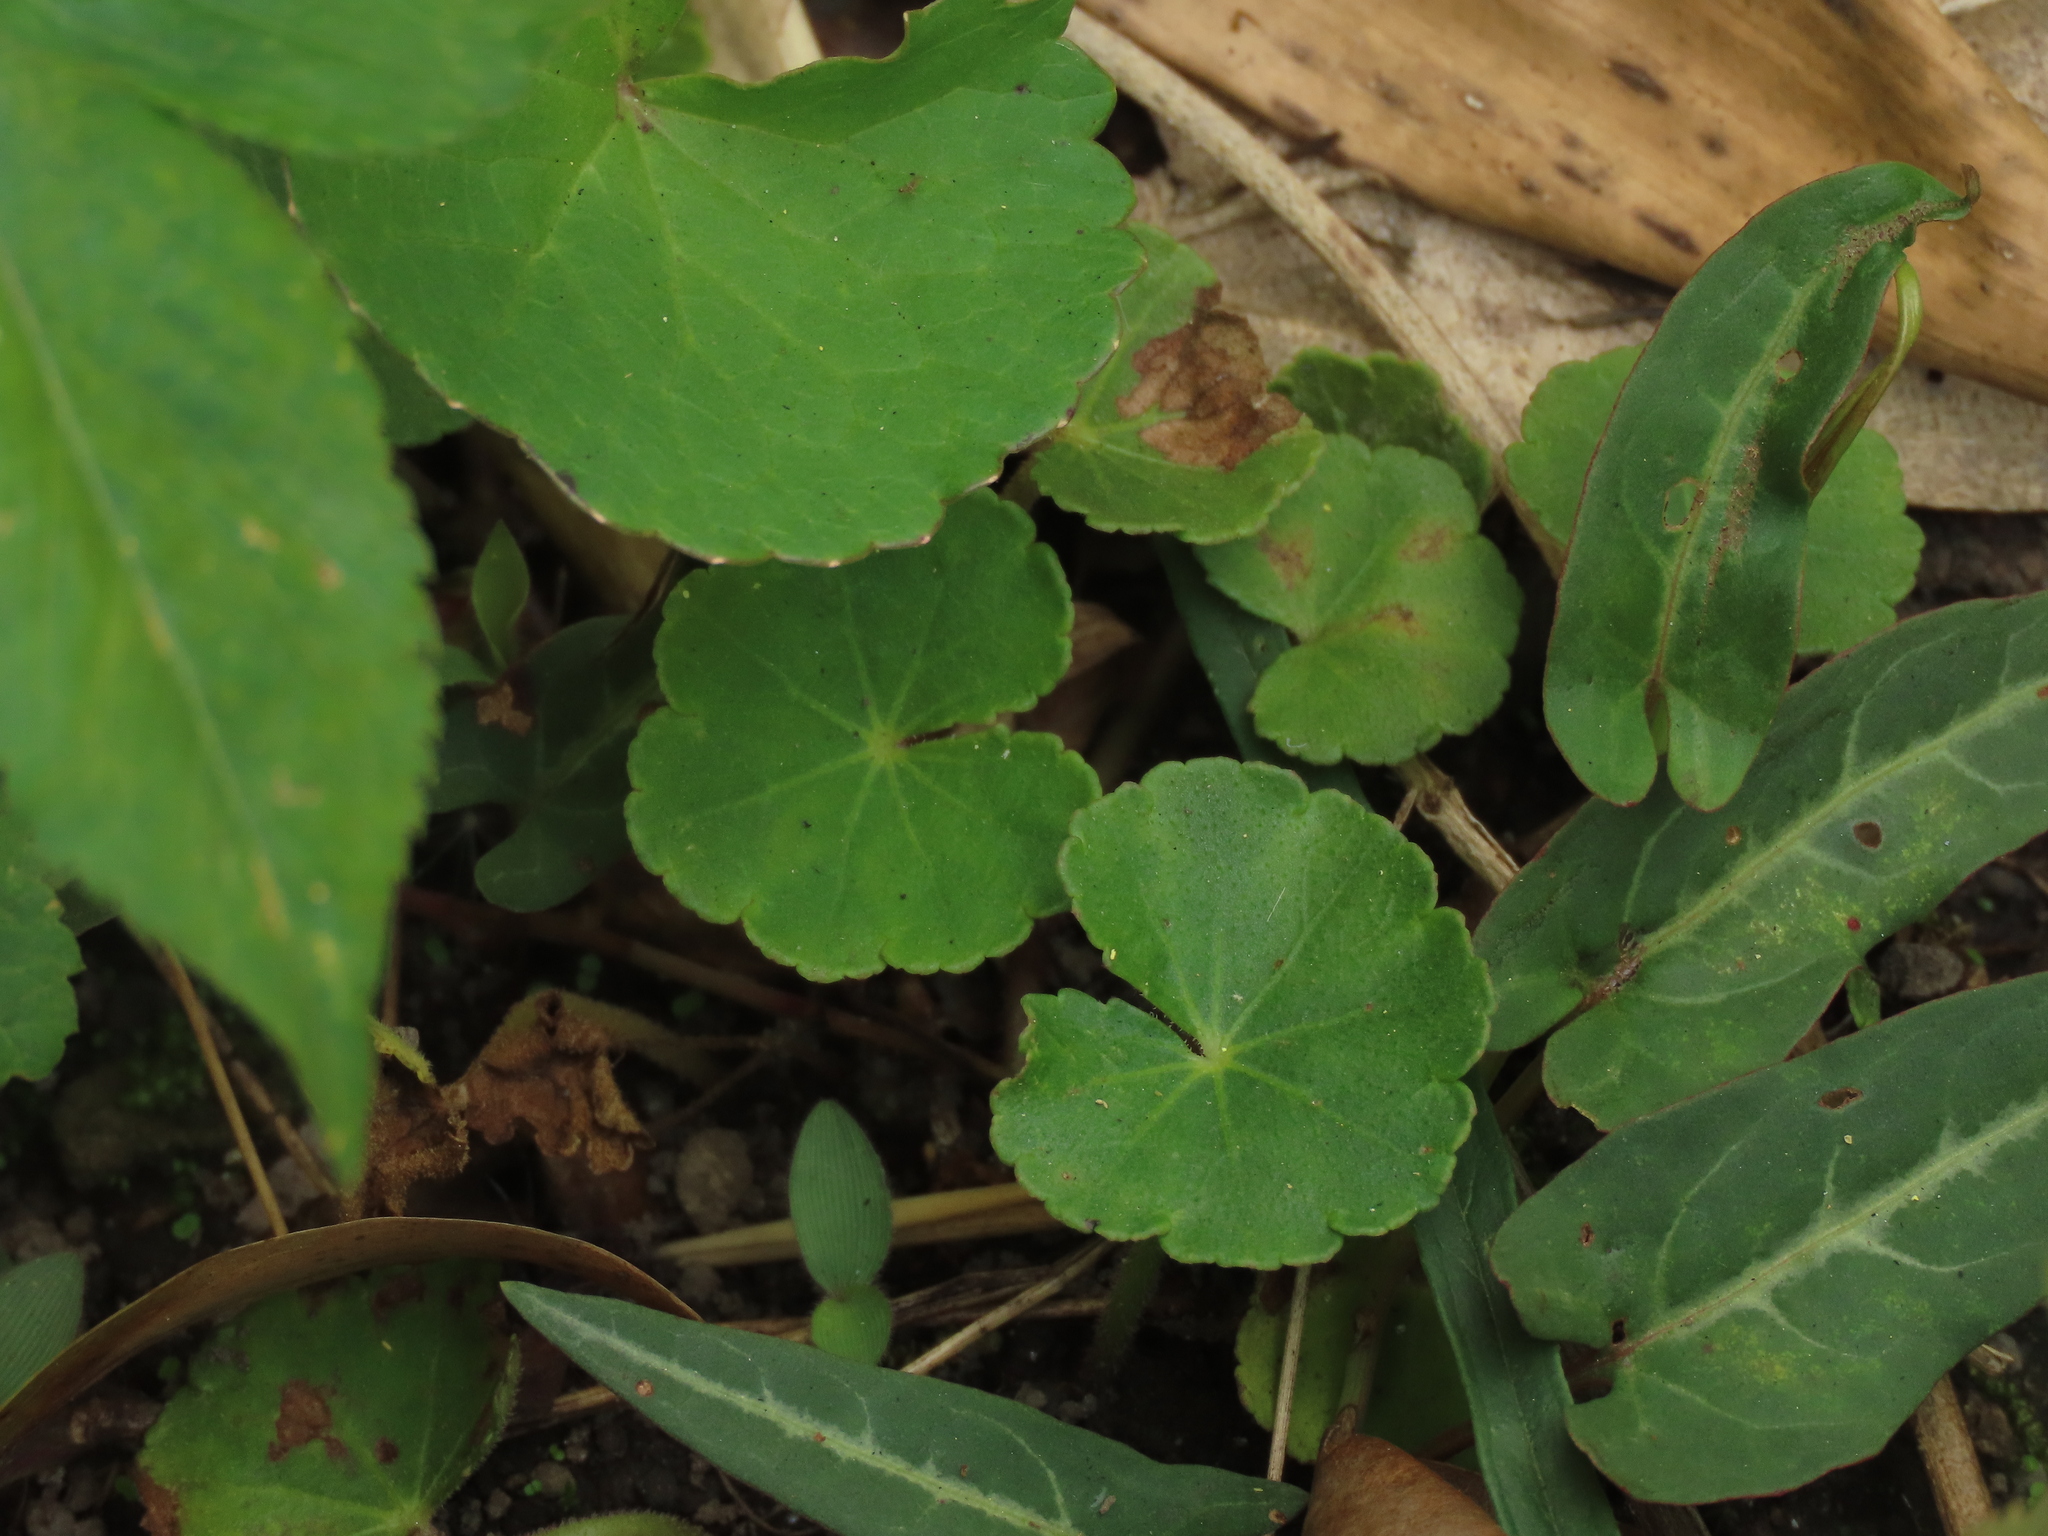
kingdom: Plantae
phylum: Tracheophyta
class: Magnoliopsida
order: Apiales
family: Araliaceae
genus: Hydrocotyle
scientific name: Hydrocotyle nepalensis
